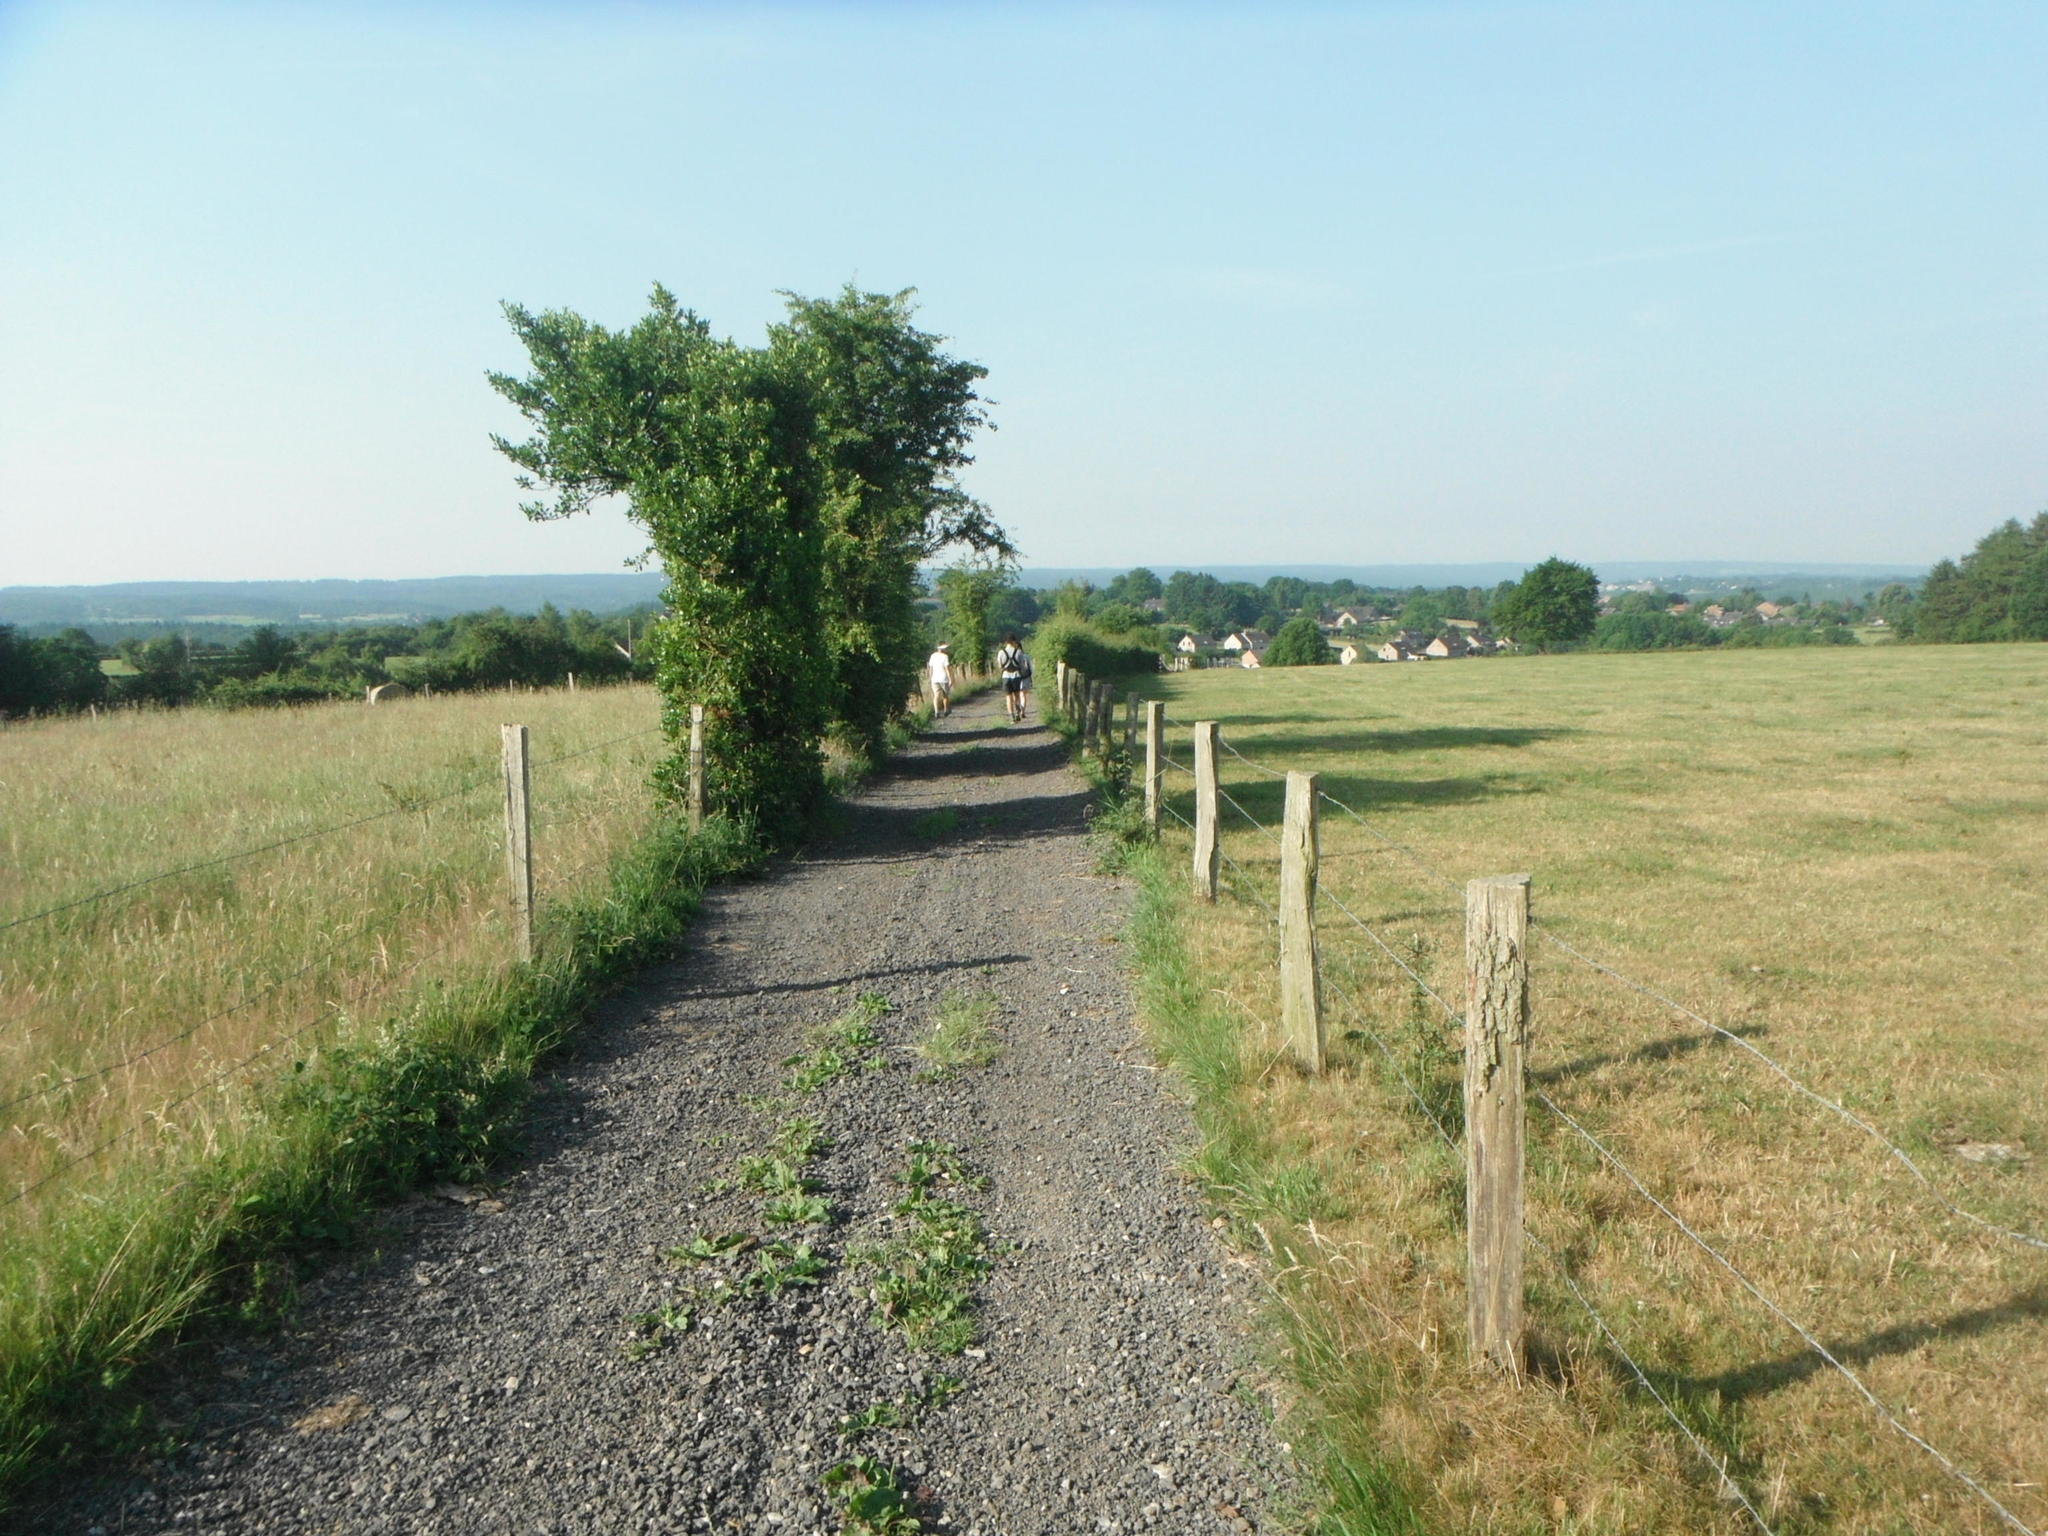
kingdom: Plantae
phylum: Tracheophyta
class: Magnoliopsida
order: Aquifoliales
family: Aquifoliaceae
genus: Ilex
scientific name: Ilex aquifolium
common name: English holly
